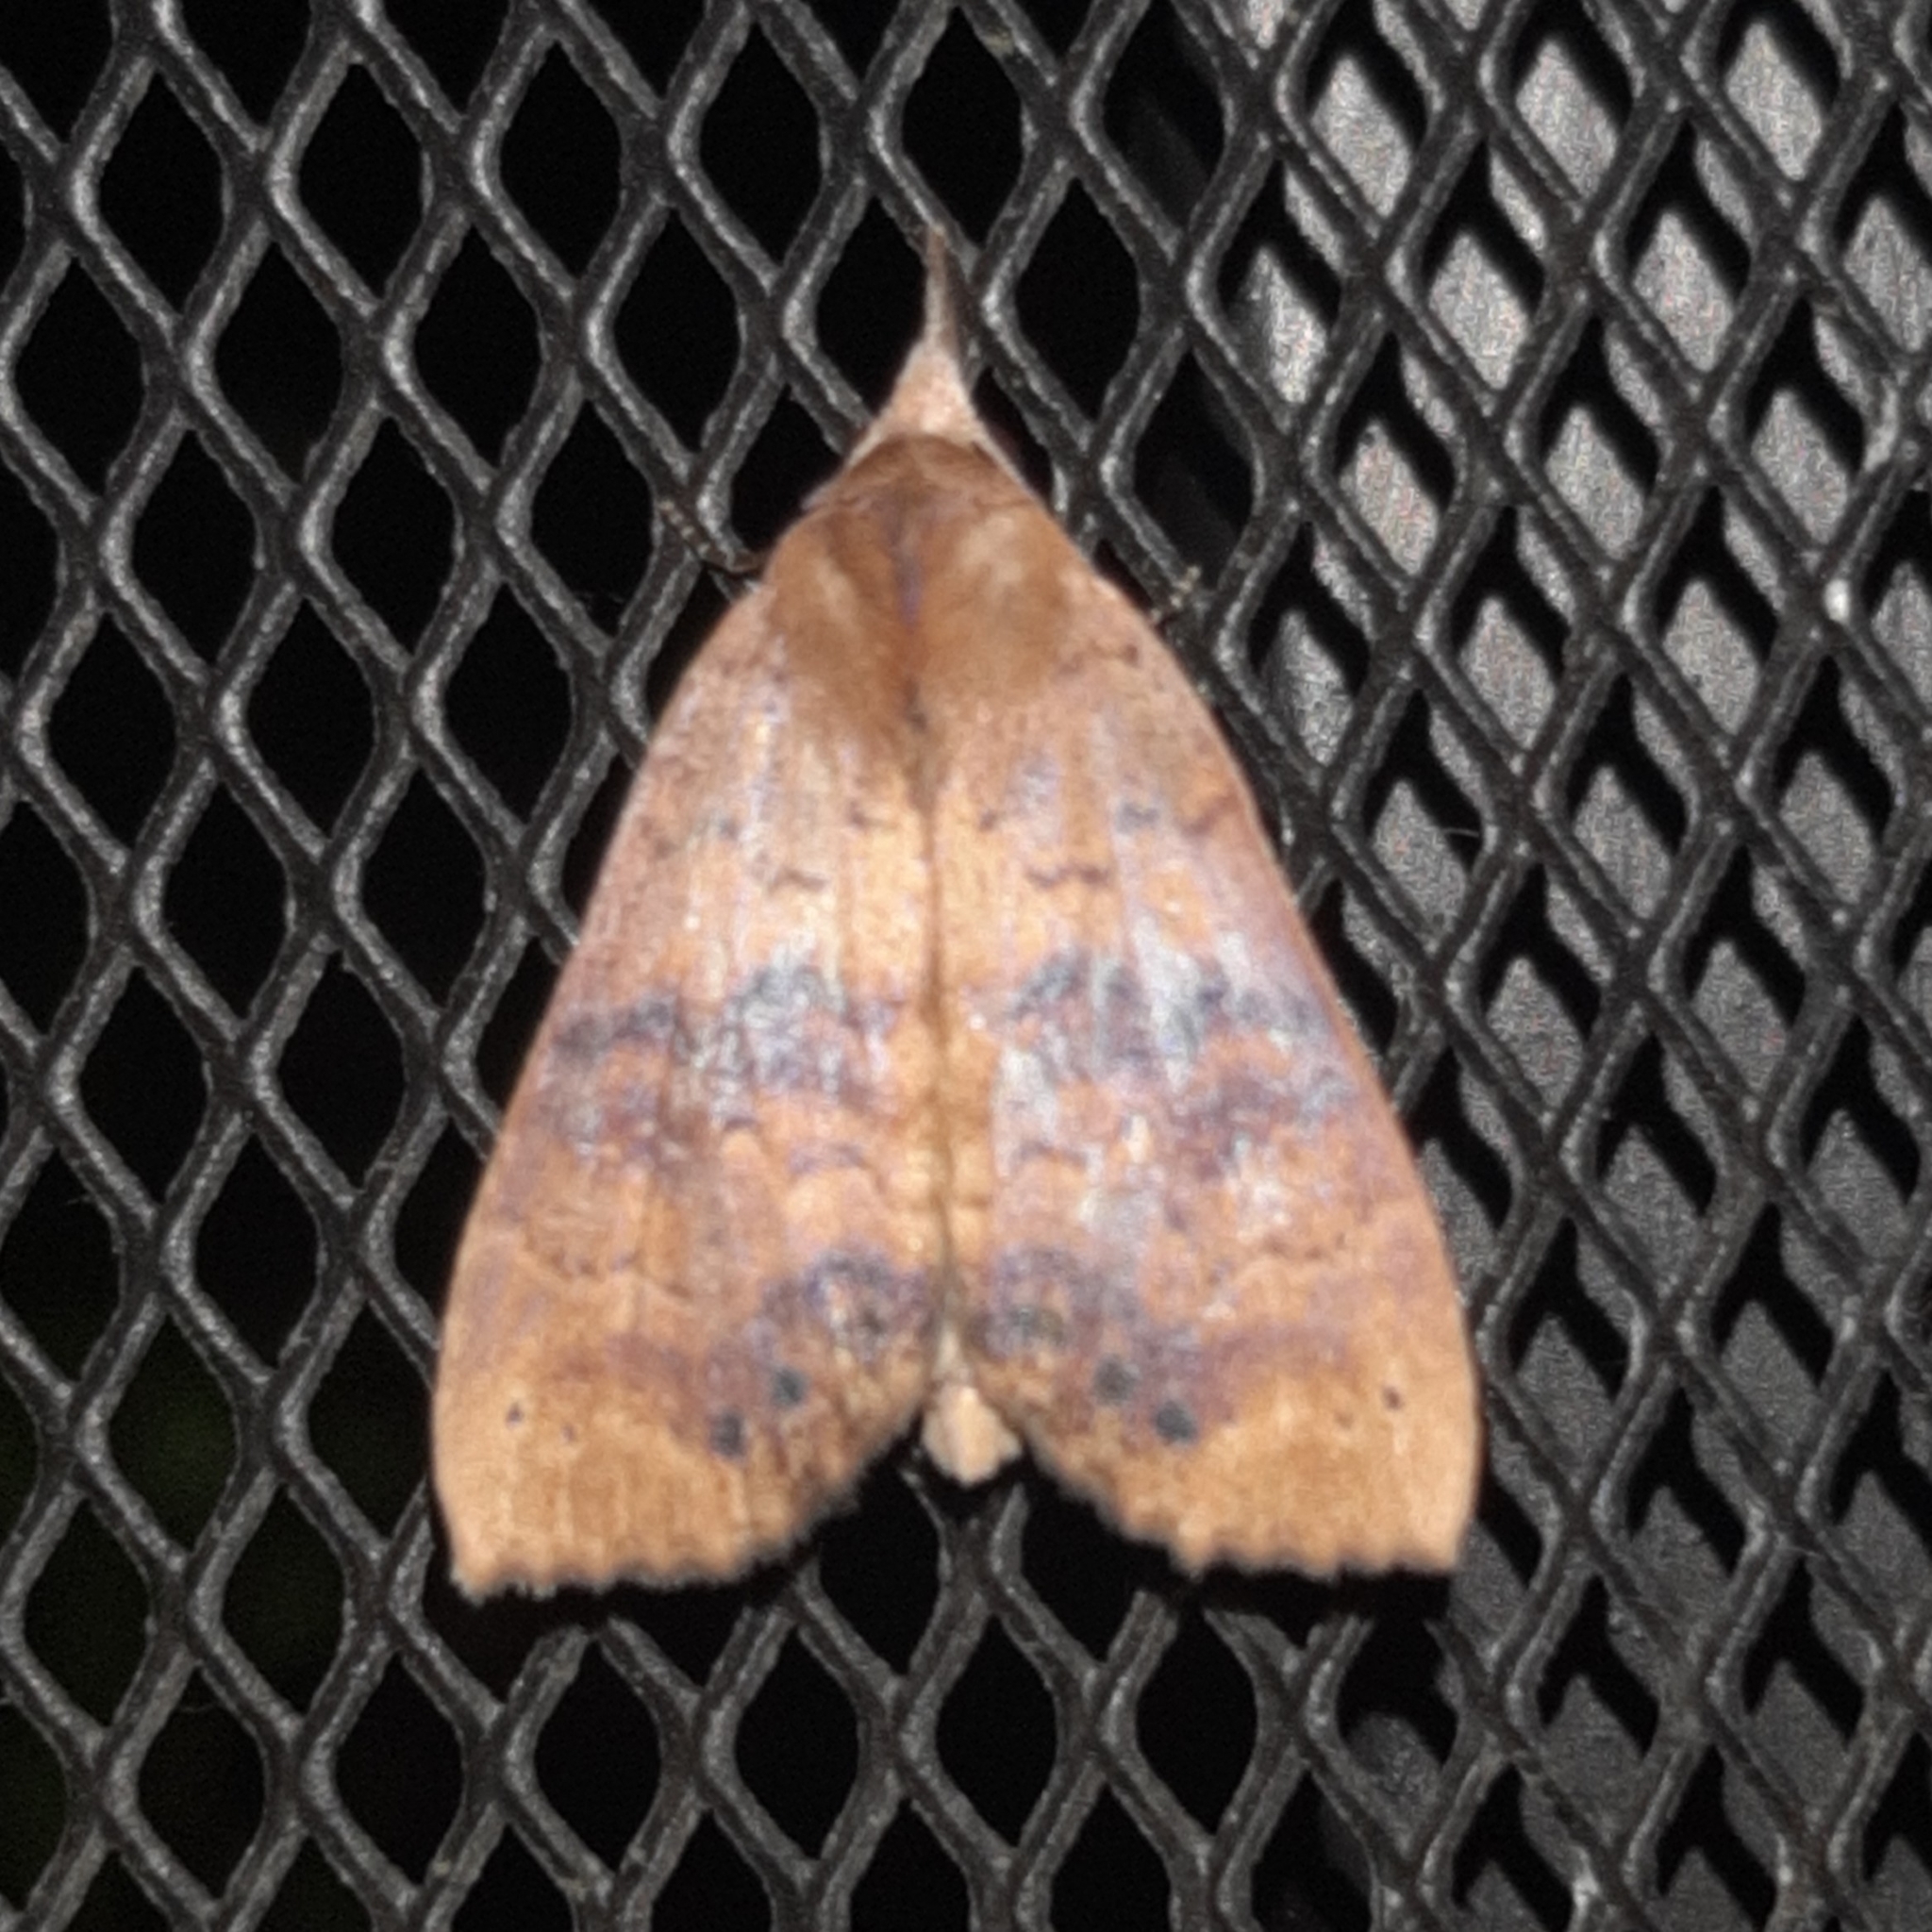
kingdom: Animalia
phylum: Arthropoda
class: Insecta
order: Lepidoptera
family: Erebidae
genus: Ipnista
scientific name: Ipnista marina
